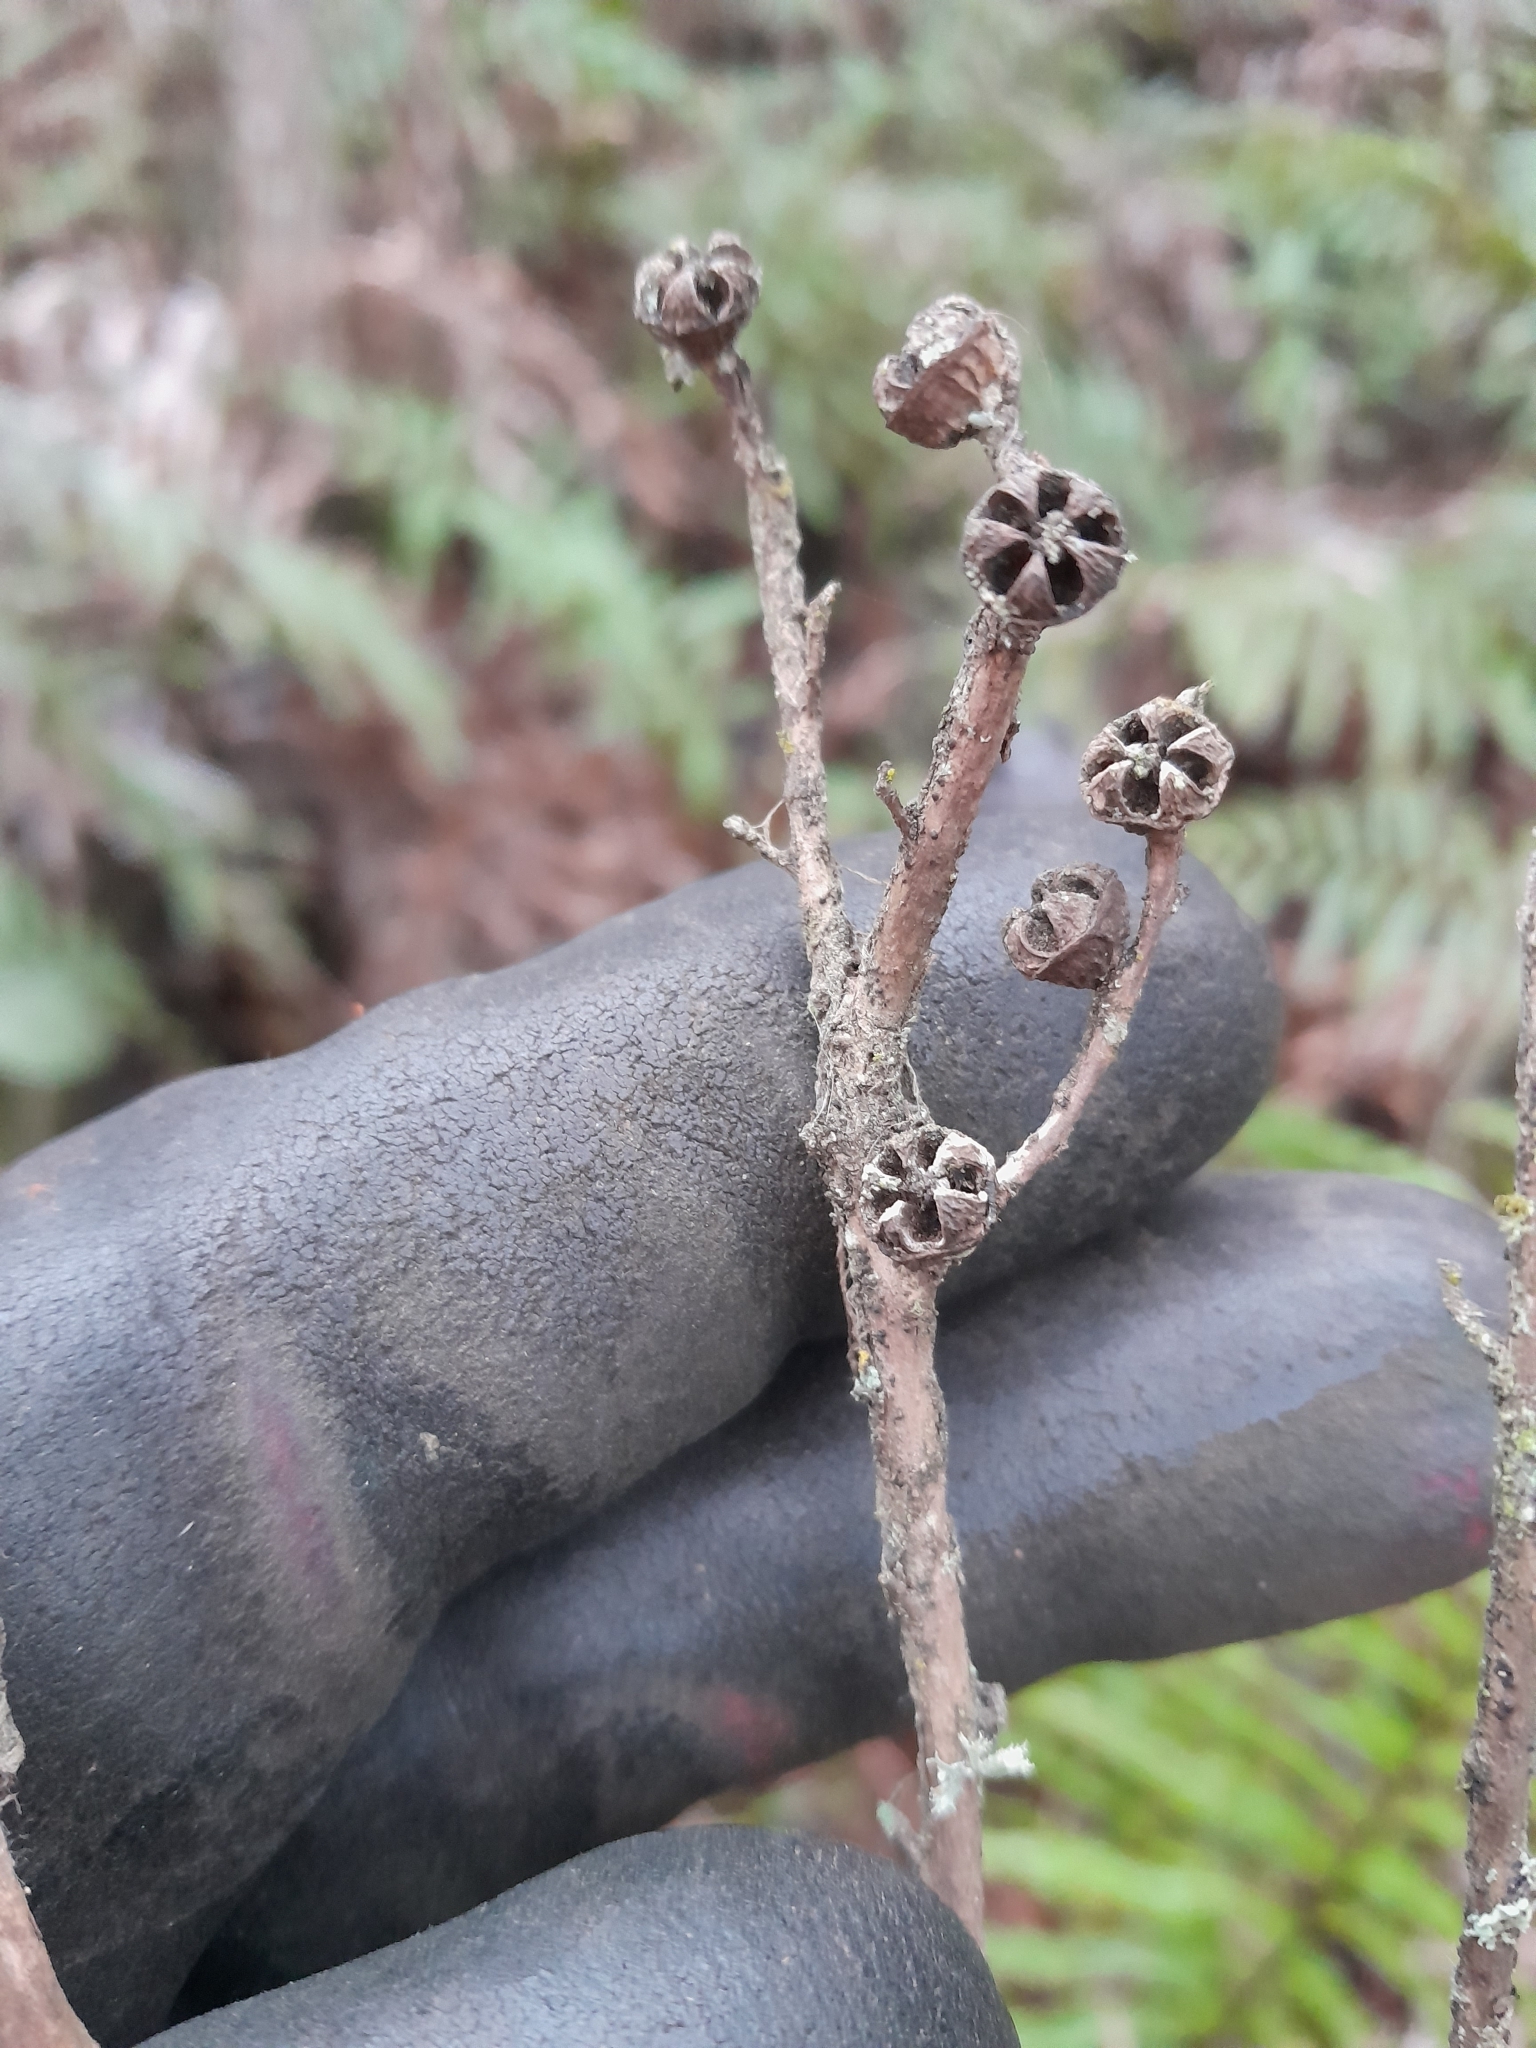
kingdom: Plantae
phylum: Tracheophyta
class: Magnoliopsida
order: Myrtales
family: Myrtaceae
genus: Leptospermum
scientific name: Leptospermum scoparium
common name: Broom tea-tree
